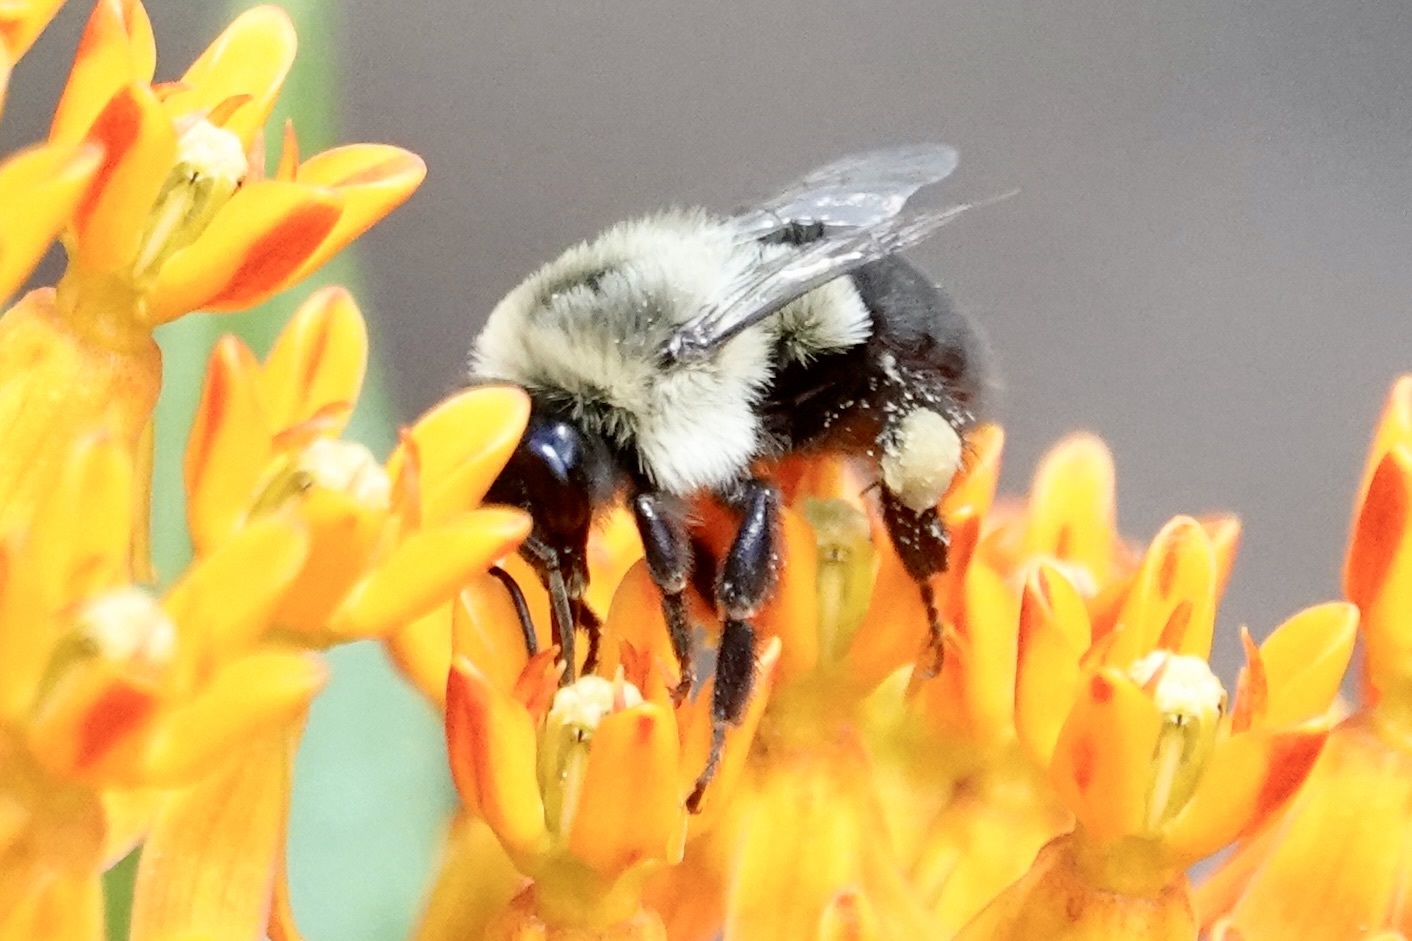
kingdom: Animalia
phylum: Arthropoda
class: Insecta
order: Hymenoptera
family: Apidae
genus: Bombus
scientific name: Bombus impatiens
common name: Common eastern bumble bee
